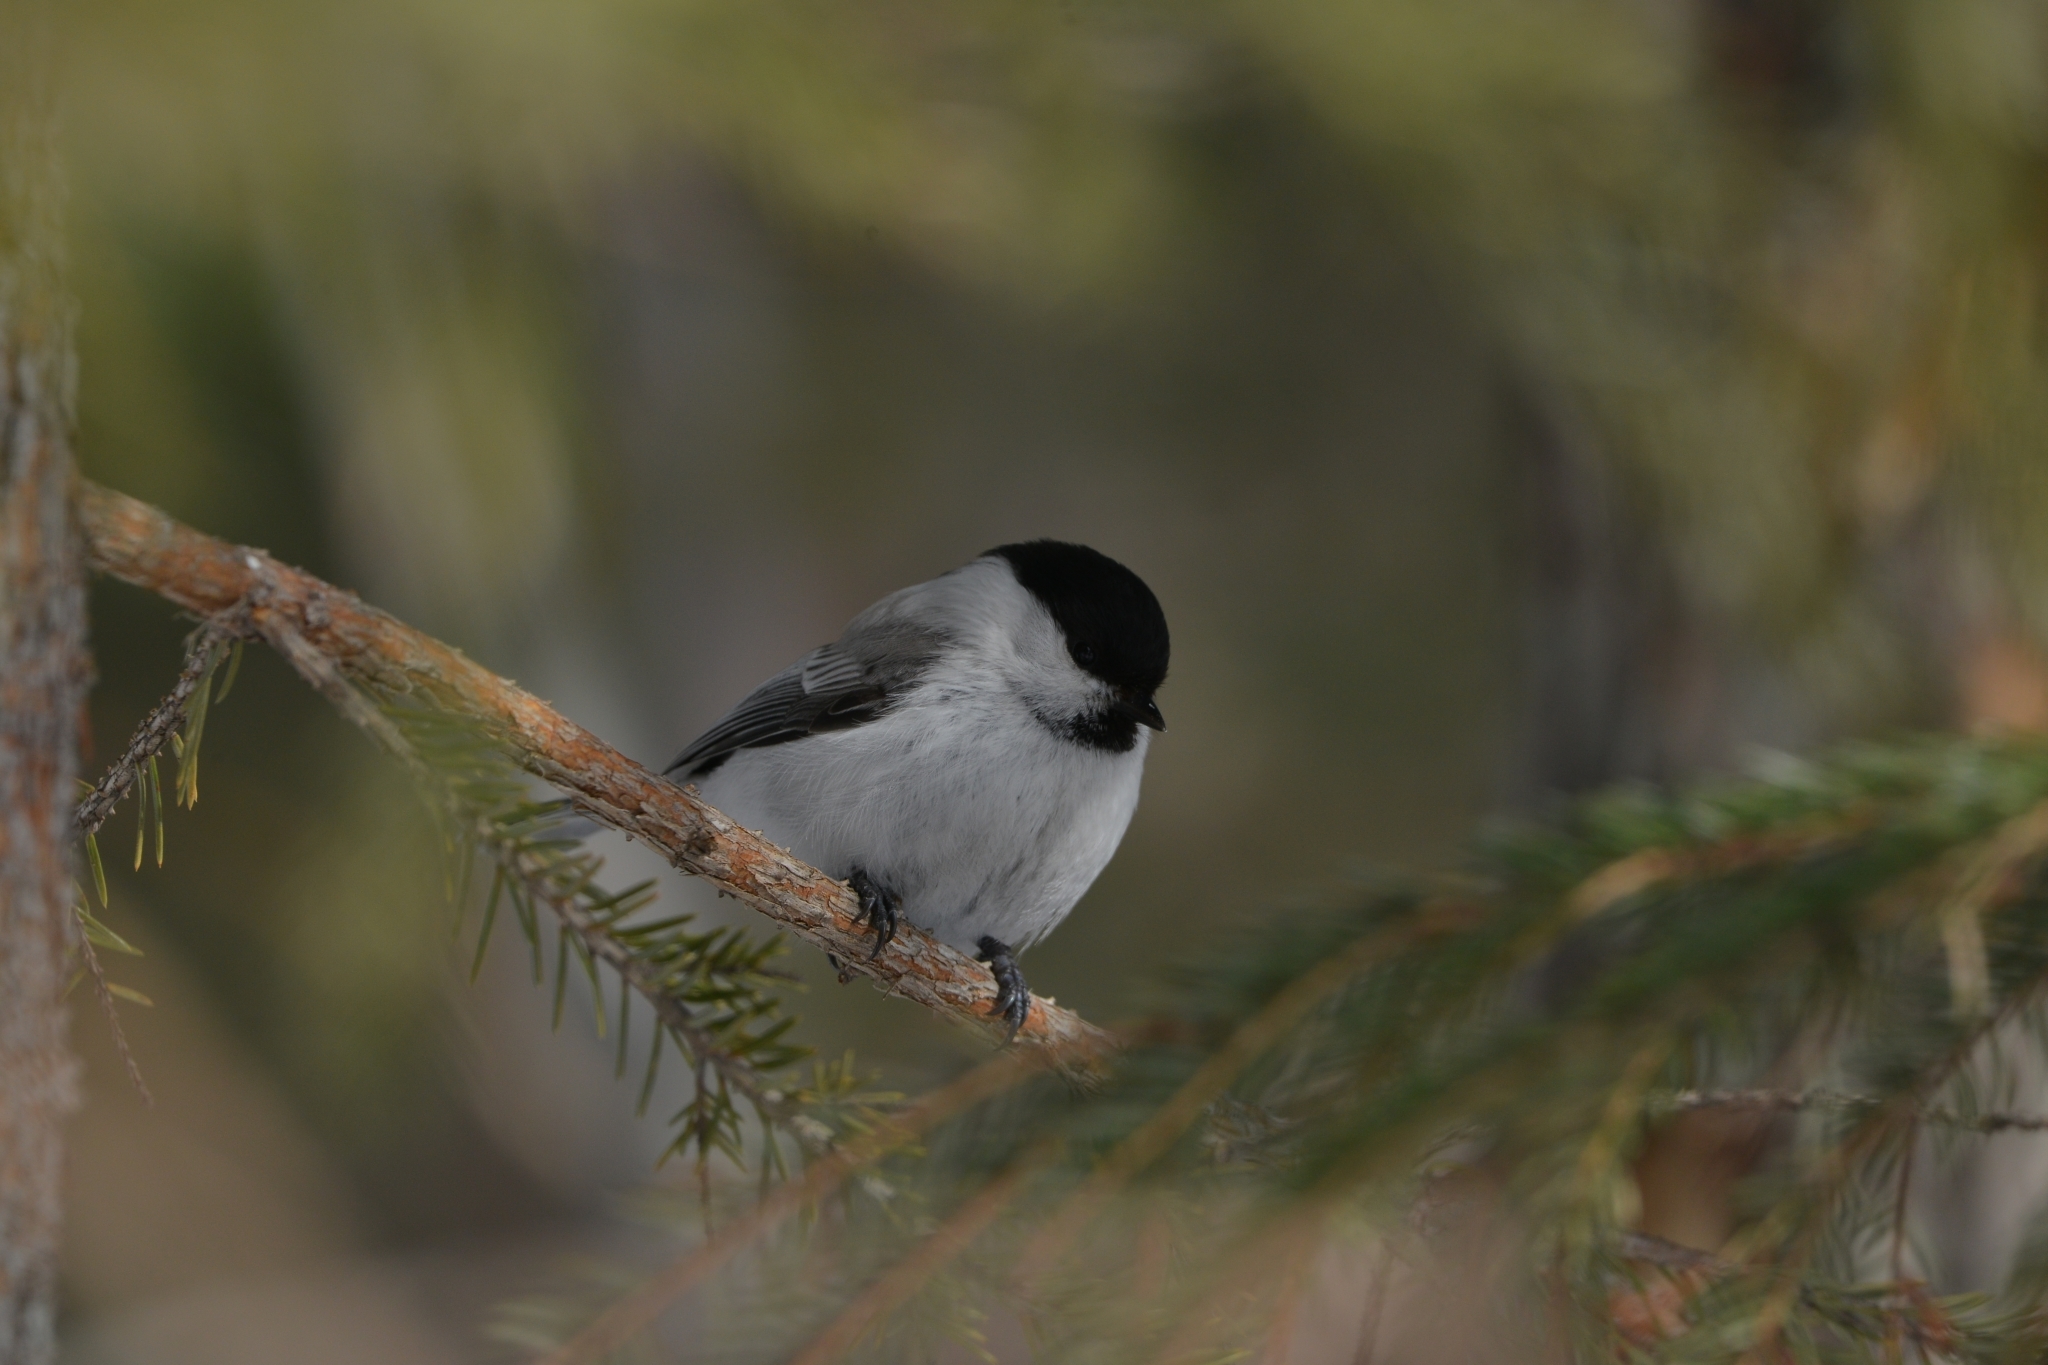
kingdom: Animalia
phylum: Chordata
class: Aves
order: Passeriformes
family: Paridae
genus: Poecile
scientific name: Poecile montanus
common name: Willow tit
